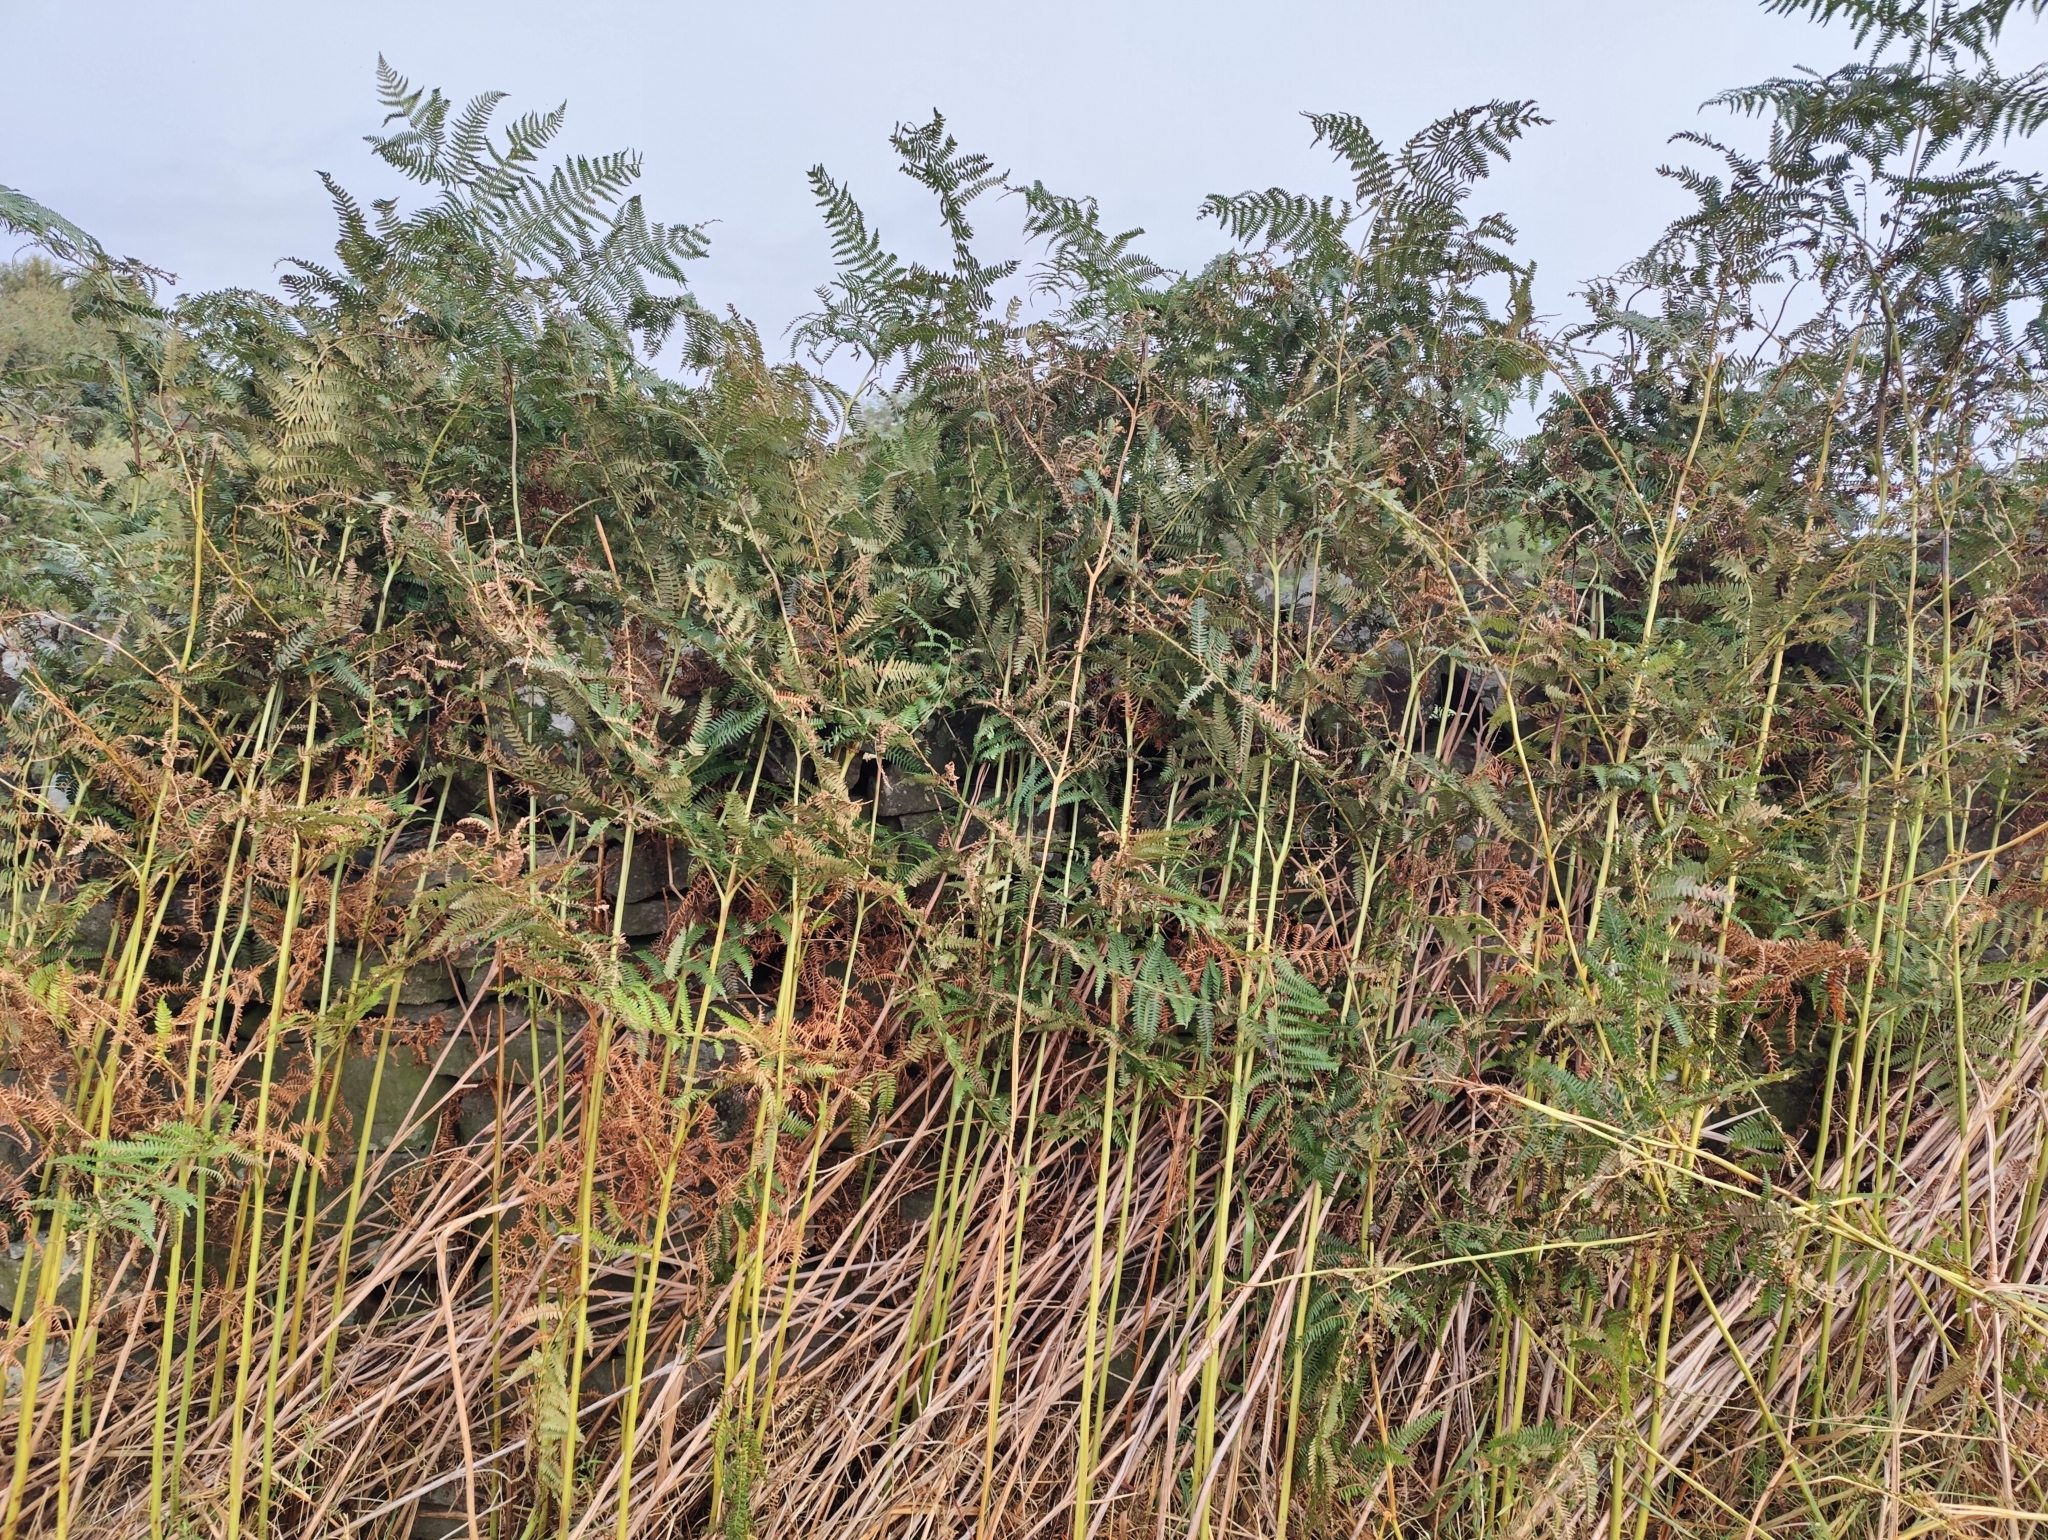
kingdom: Plantae
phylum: Tracheophyta
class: Polypodiopsida
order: Polypodiales
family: Dennstaedtiaceae
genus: Pteridium
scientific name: Pteridium aquilinum
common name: Bracken
